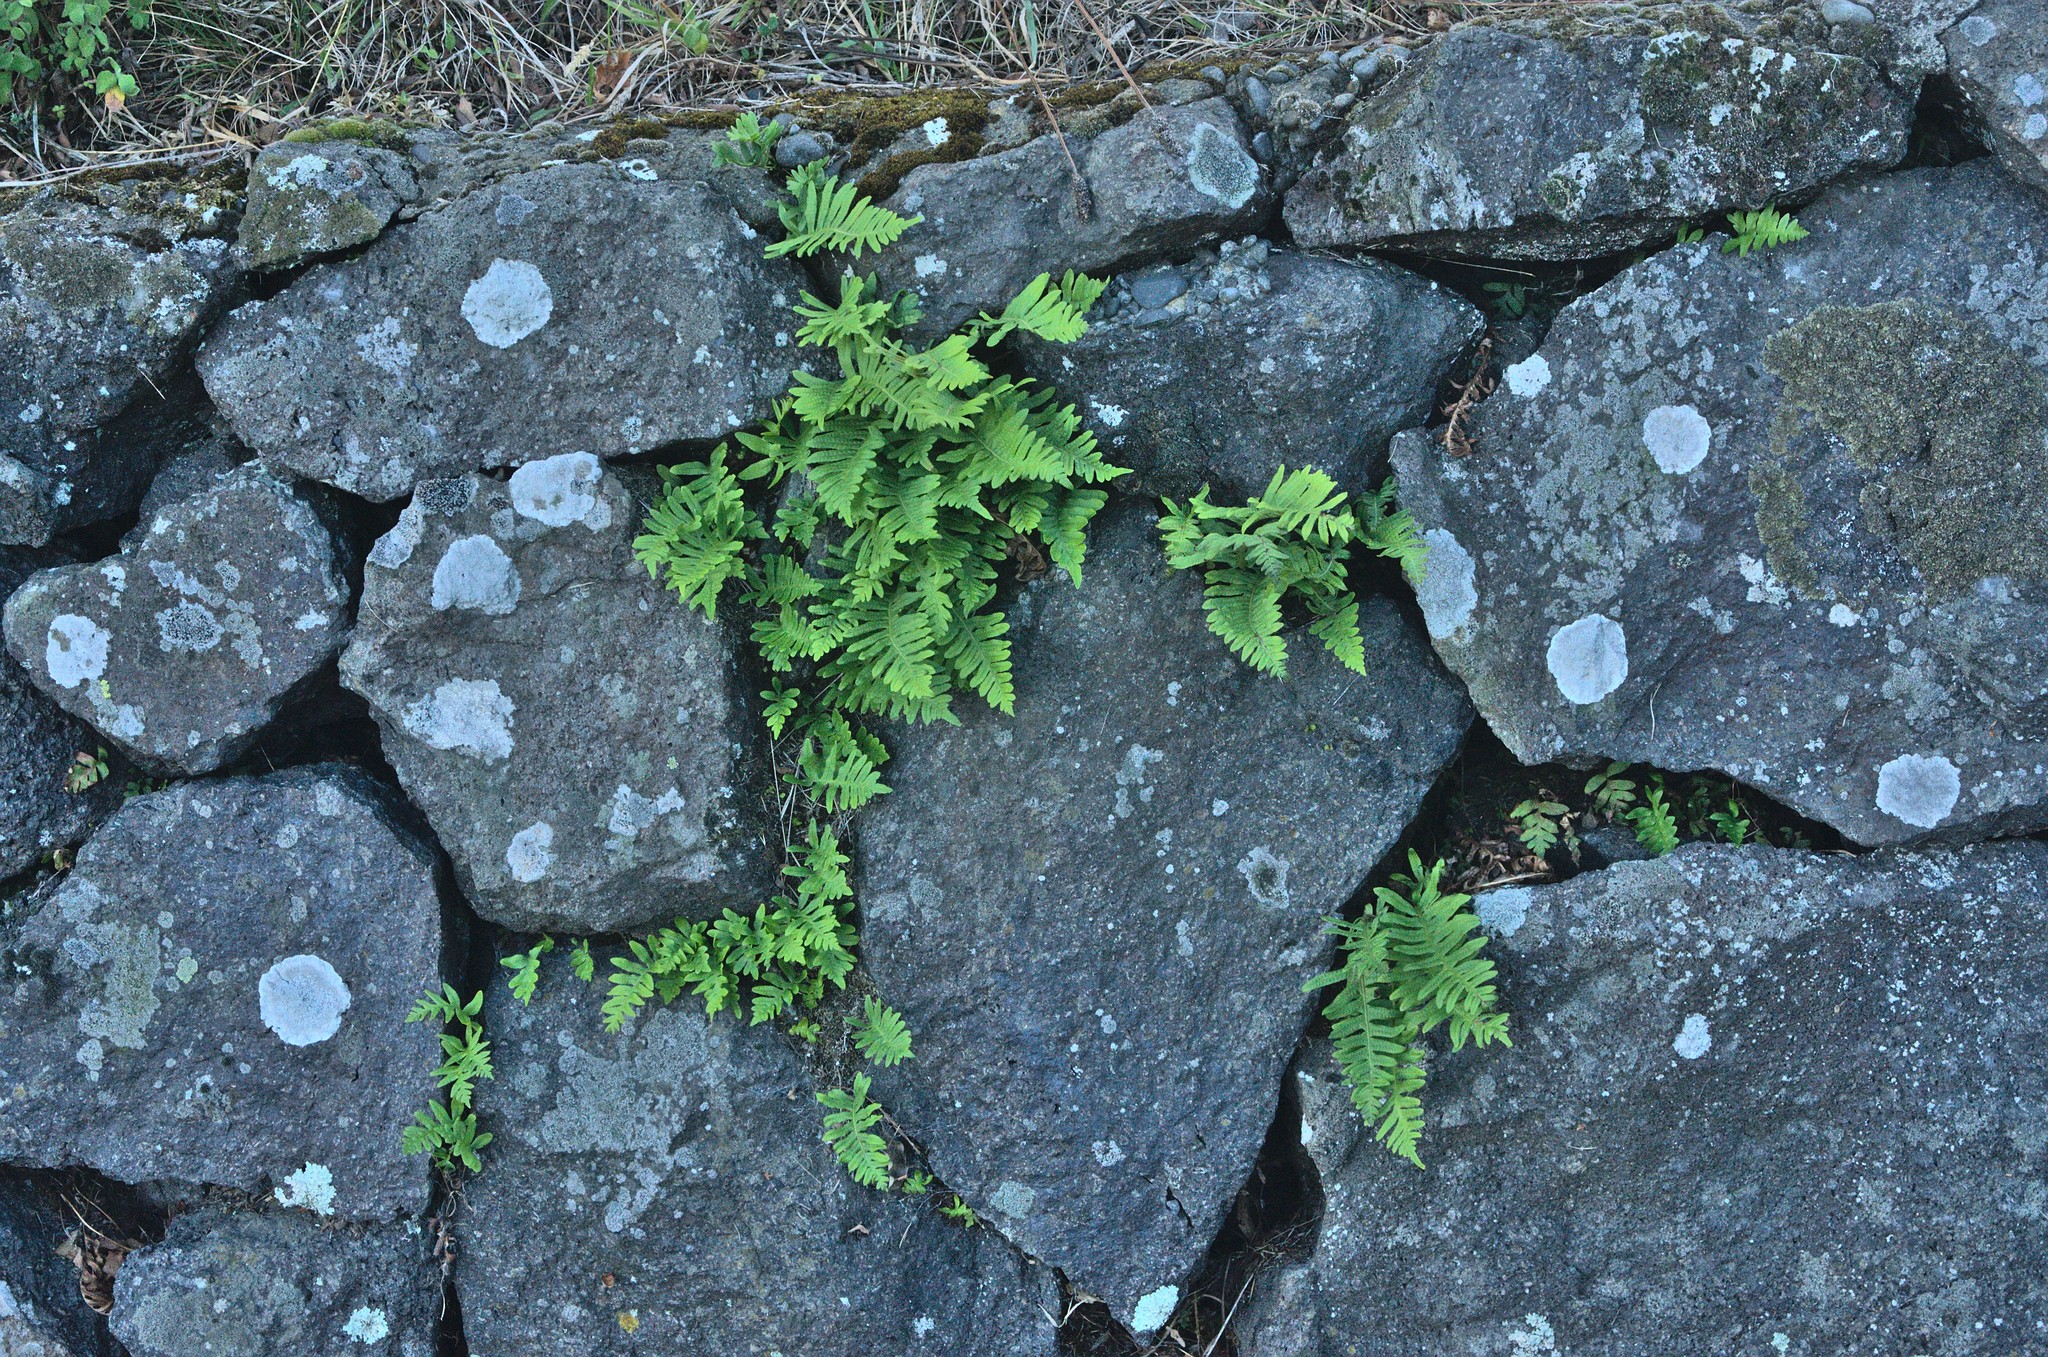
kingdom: Plantae
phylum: Tracheophyta
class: Polypodiopsida
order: Polypodiales
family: Polypodiaceae
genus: Polypodium
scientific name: Polypodium vulgare
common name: Common polypody
